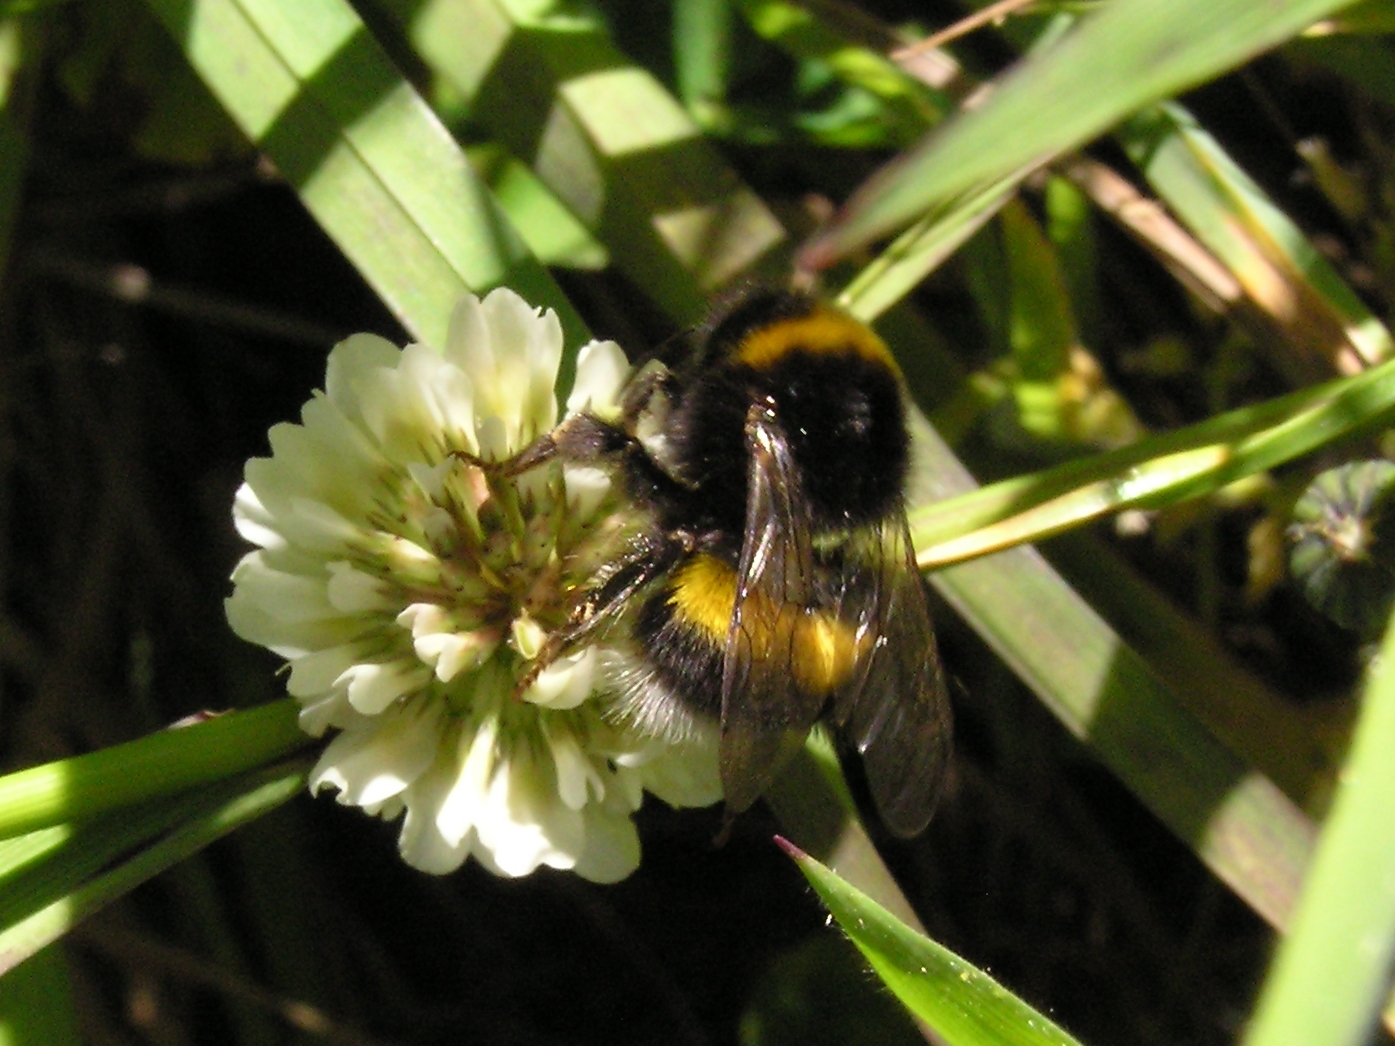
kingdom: Animalia
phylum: Arthropoda
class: Insecta
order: Hymenoptera
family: Apidae
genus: Bombus
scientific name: Bombus terrestris
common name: Buff-tailed bumblebee
